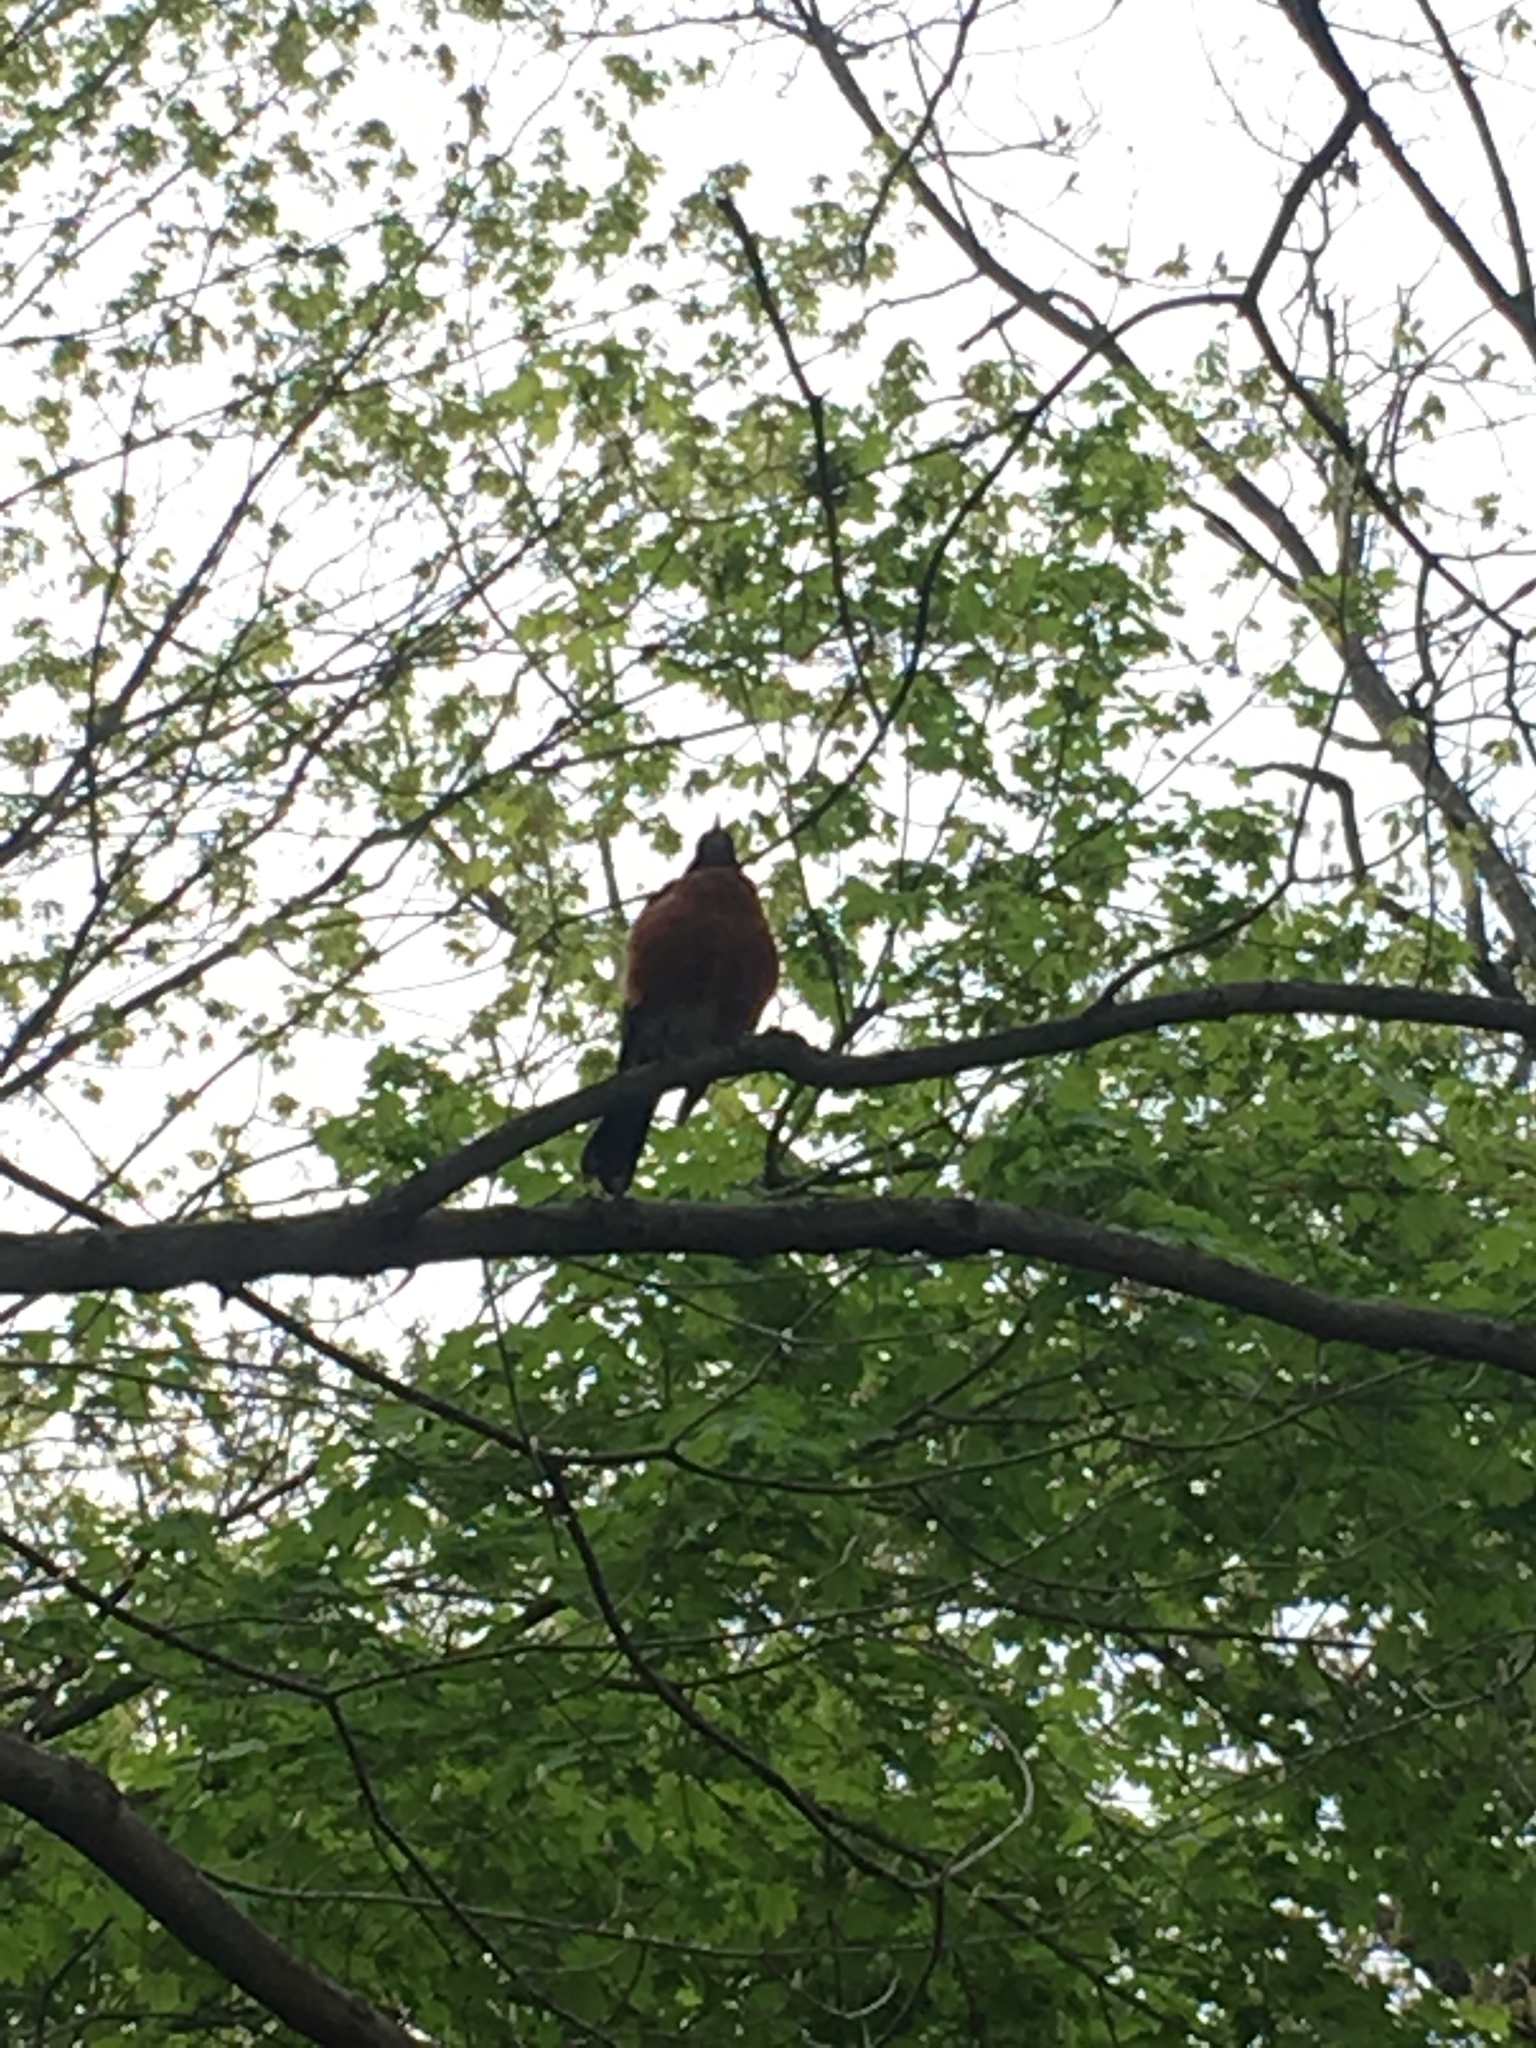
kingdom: Animalia
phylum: Chordata
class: Aves
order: Passeriformes
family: Turdidae
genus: Turdus
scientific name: Turdus migratorius
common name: American robin
